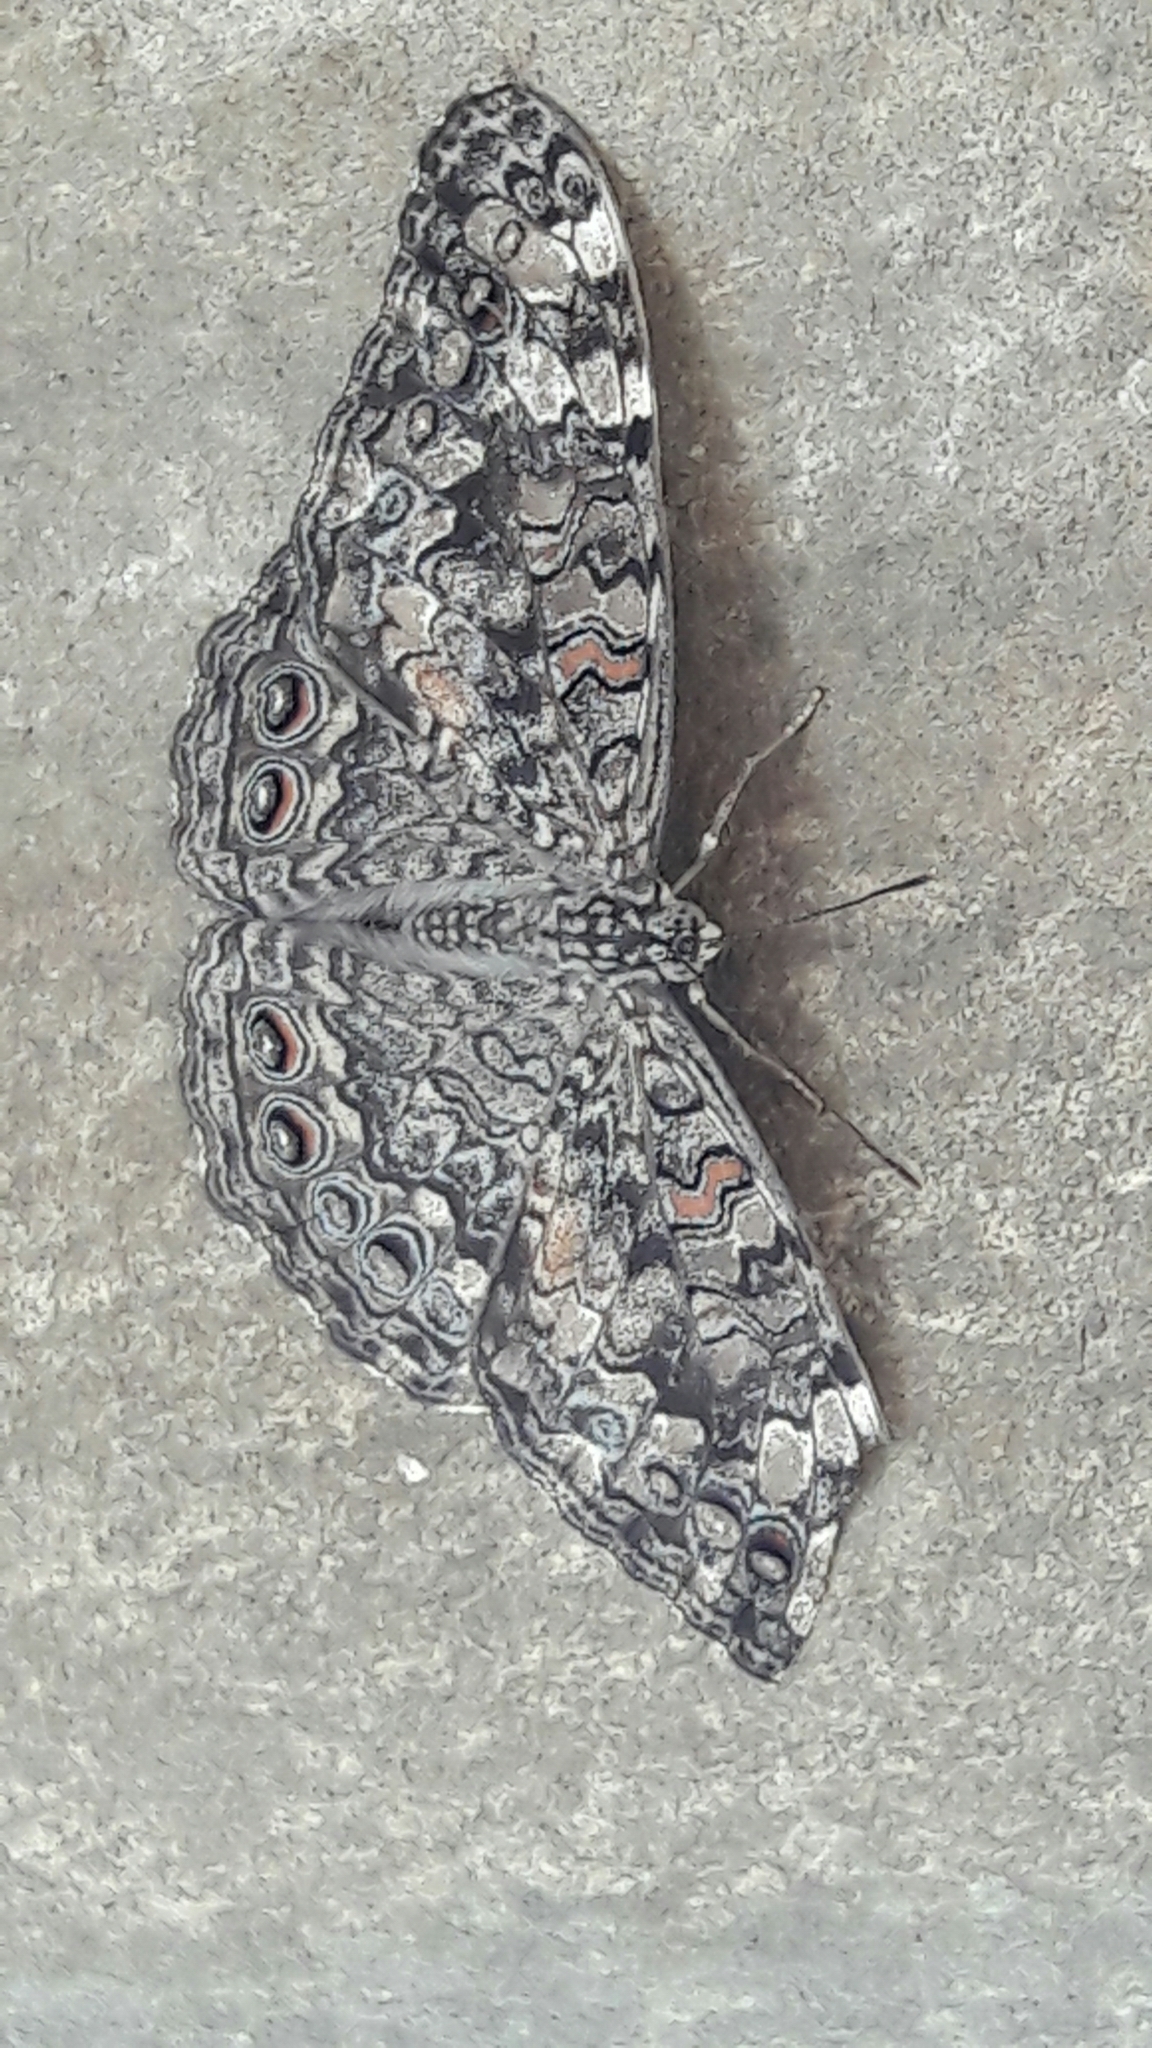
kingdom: Animalia
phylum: Arthropoda
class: Insecta
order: Lepidoptera
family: Nymphalidae
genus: Hamadryas
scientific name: Hamadryas feronia
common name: Variable cracker
